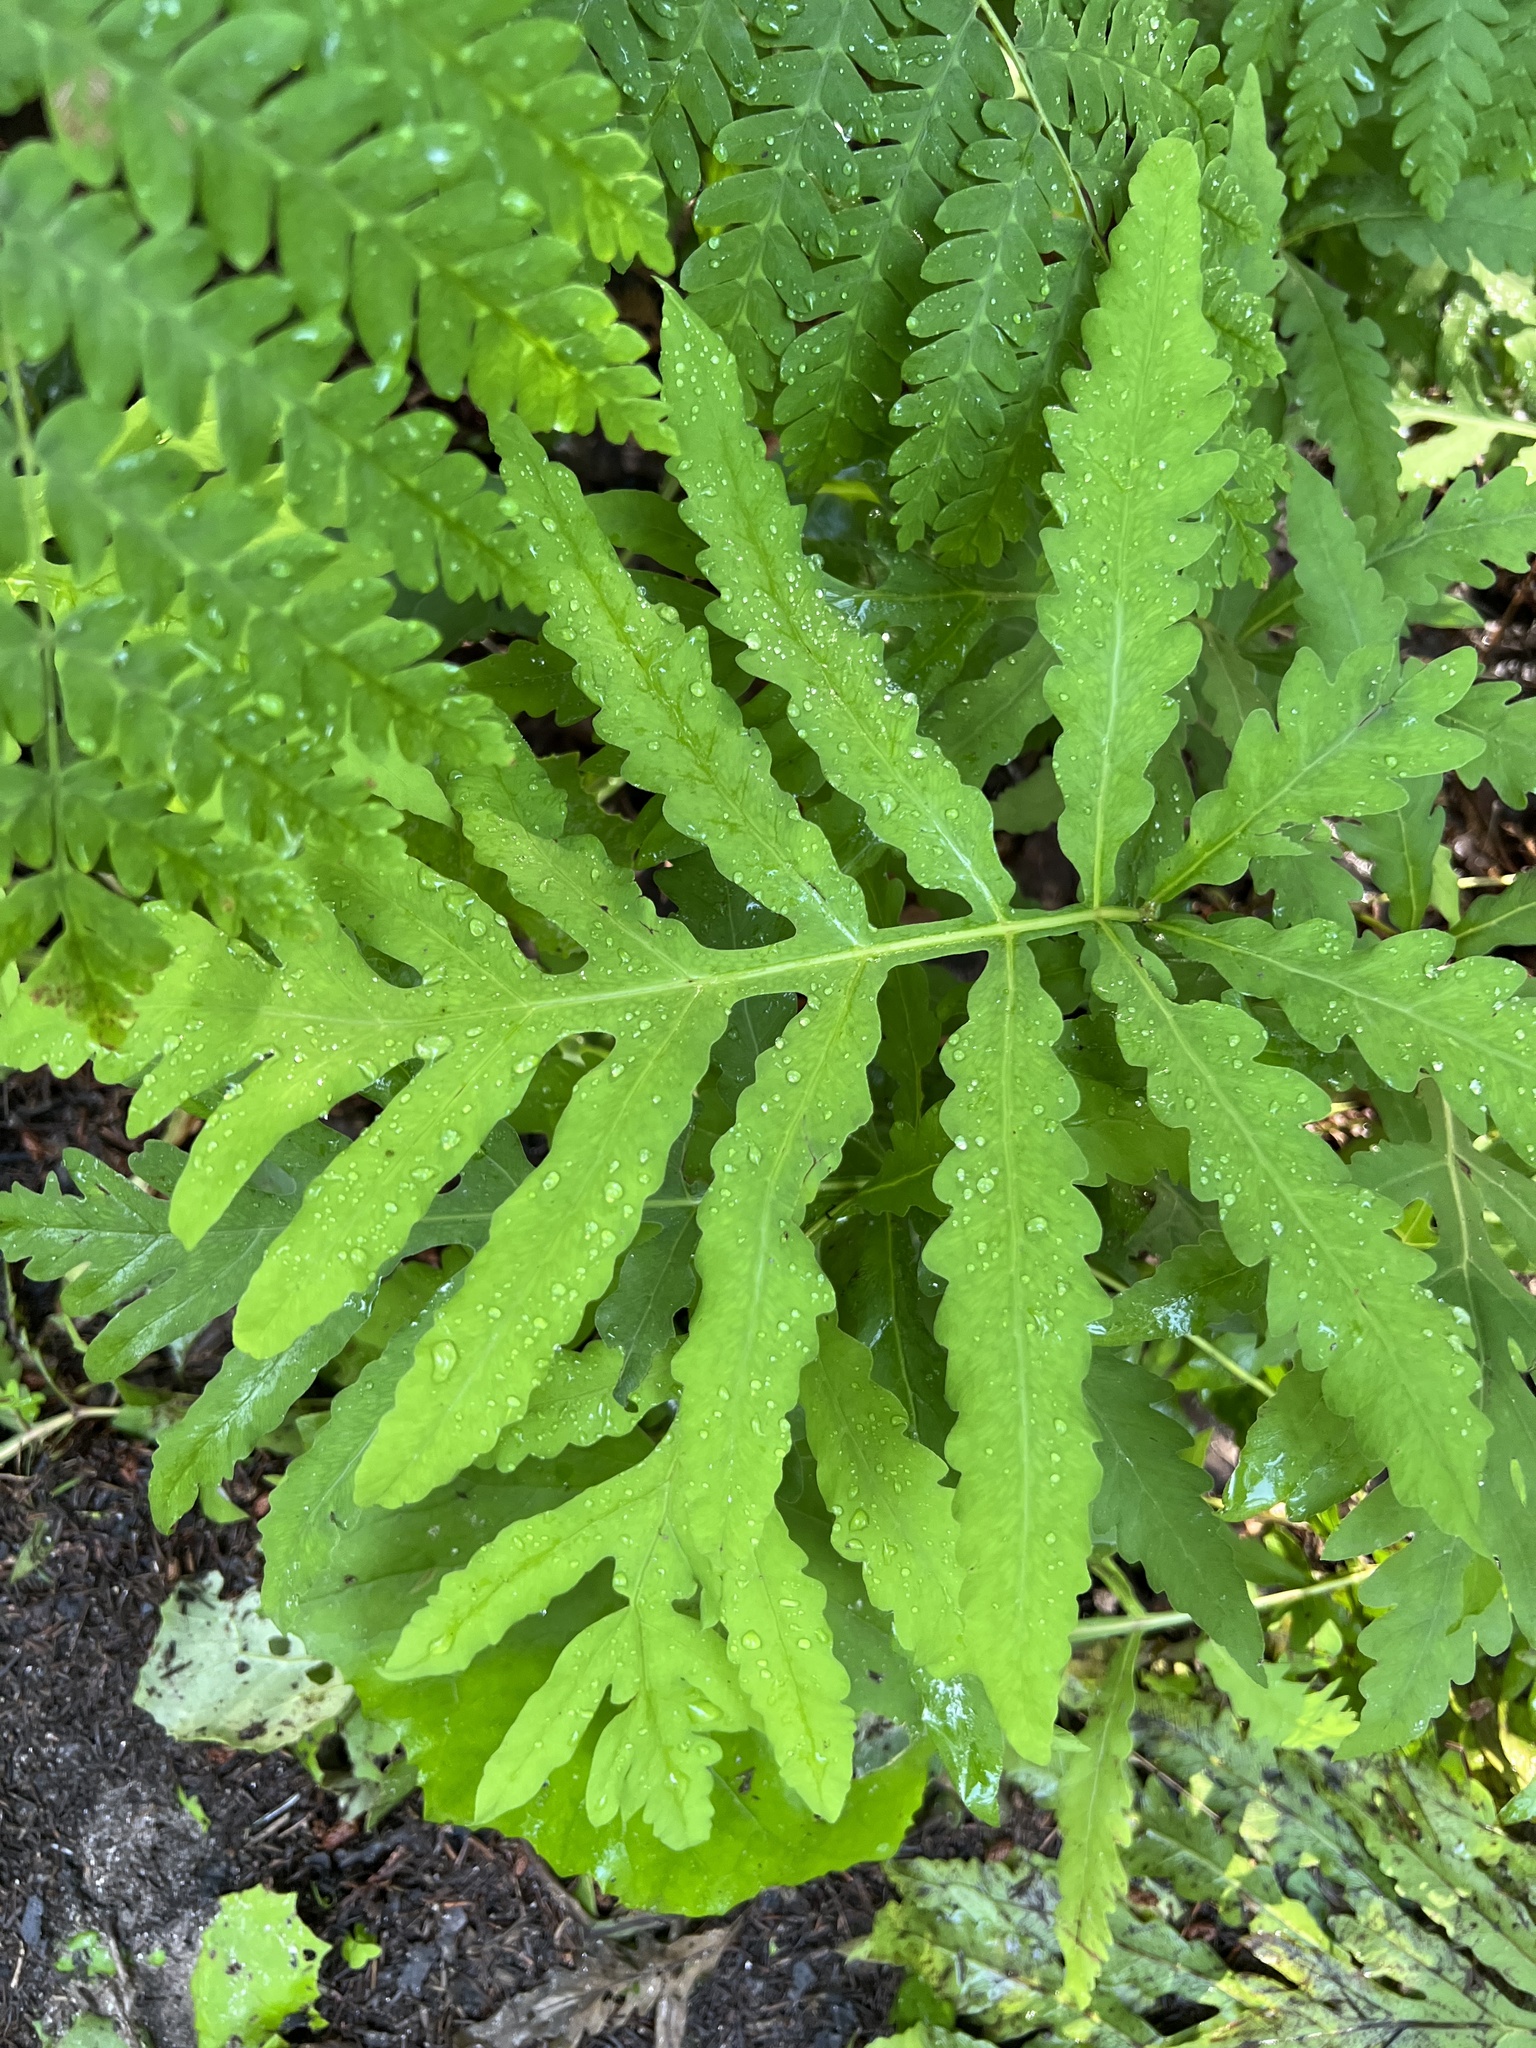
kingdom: Plantae
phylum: Tracheophyta
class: Polypodiopsida
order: Polypodiales
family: Onocleaceae
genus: Onoclea
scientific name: Onoclea sensibilis
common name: Sensitive fern
